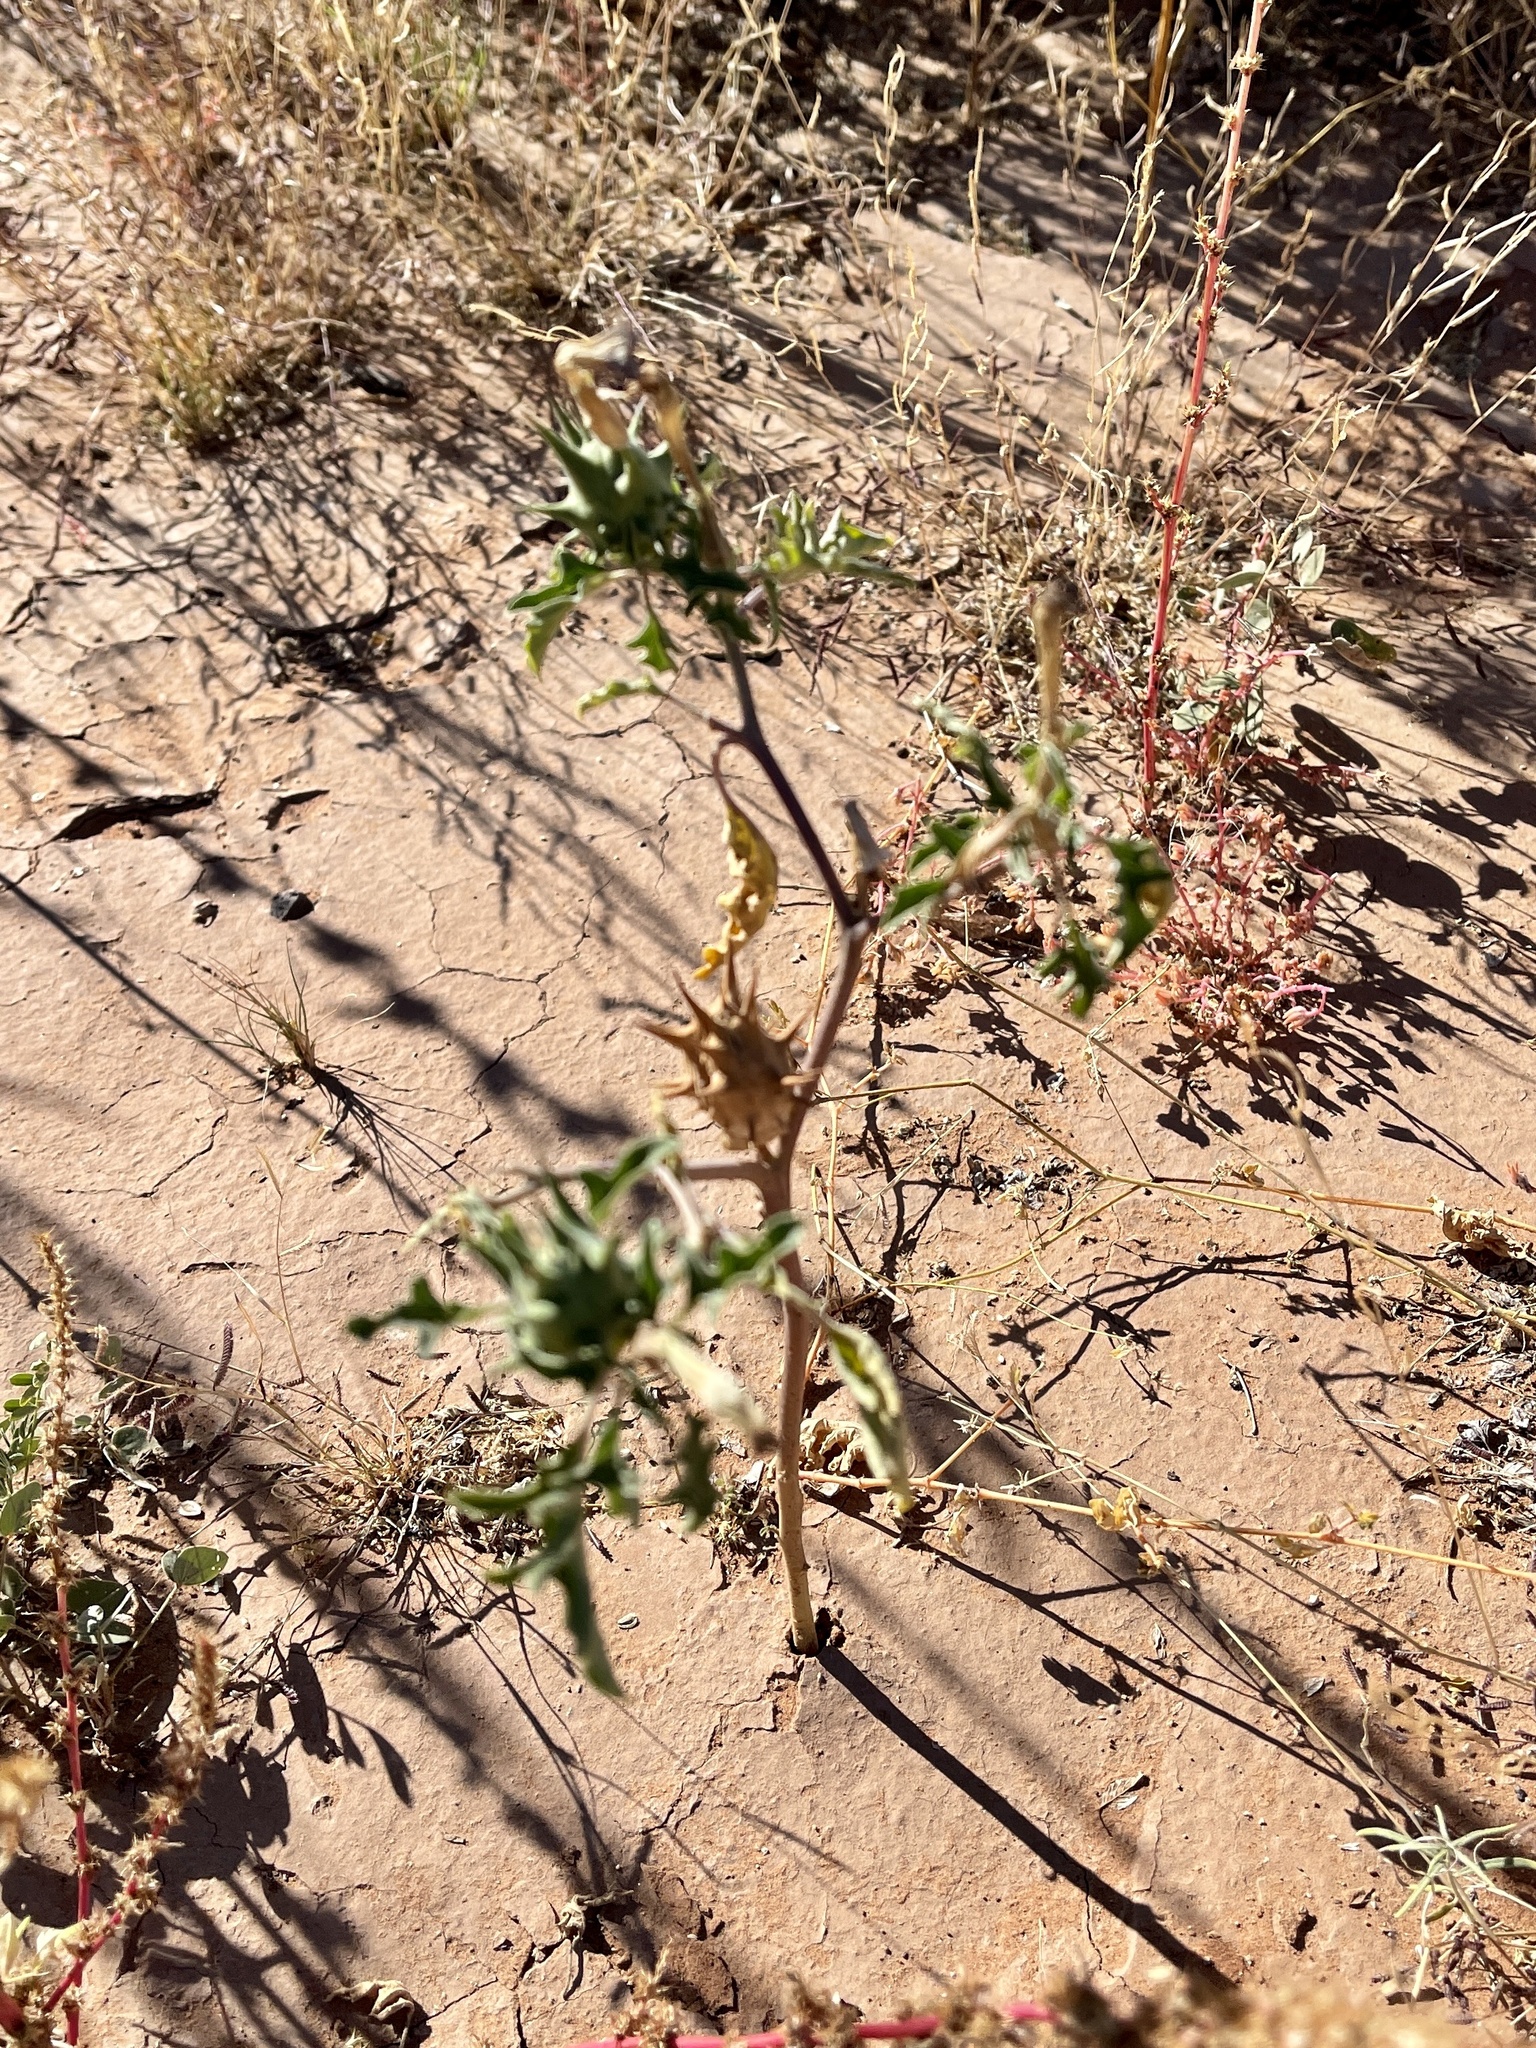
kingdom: Plantae
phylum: Tracheophyta
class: Magnoliopsida
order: Solanales
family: Solanaceae
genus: Datura
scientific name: Datura quercifolia
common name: Oak-leaf datura
